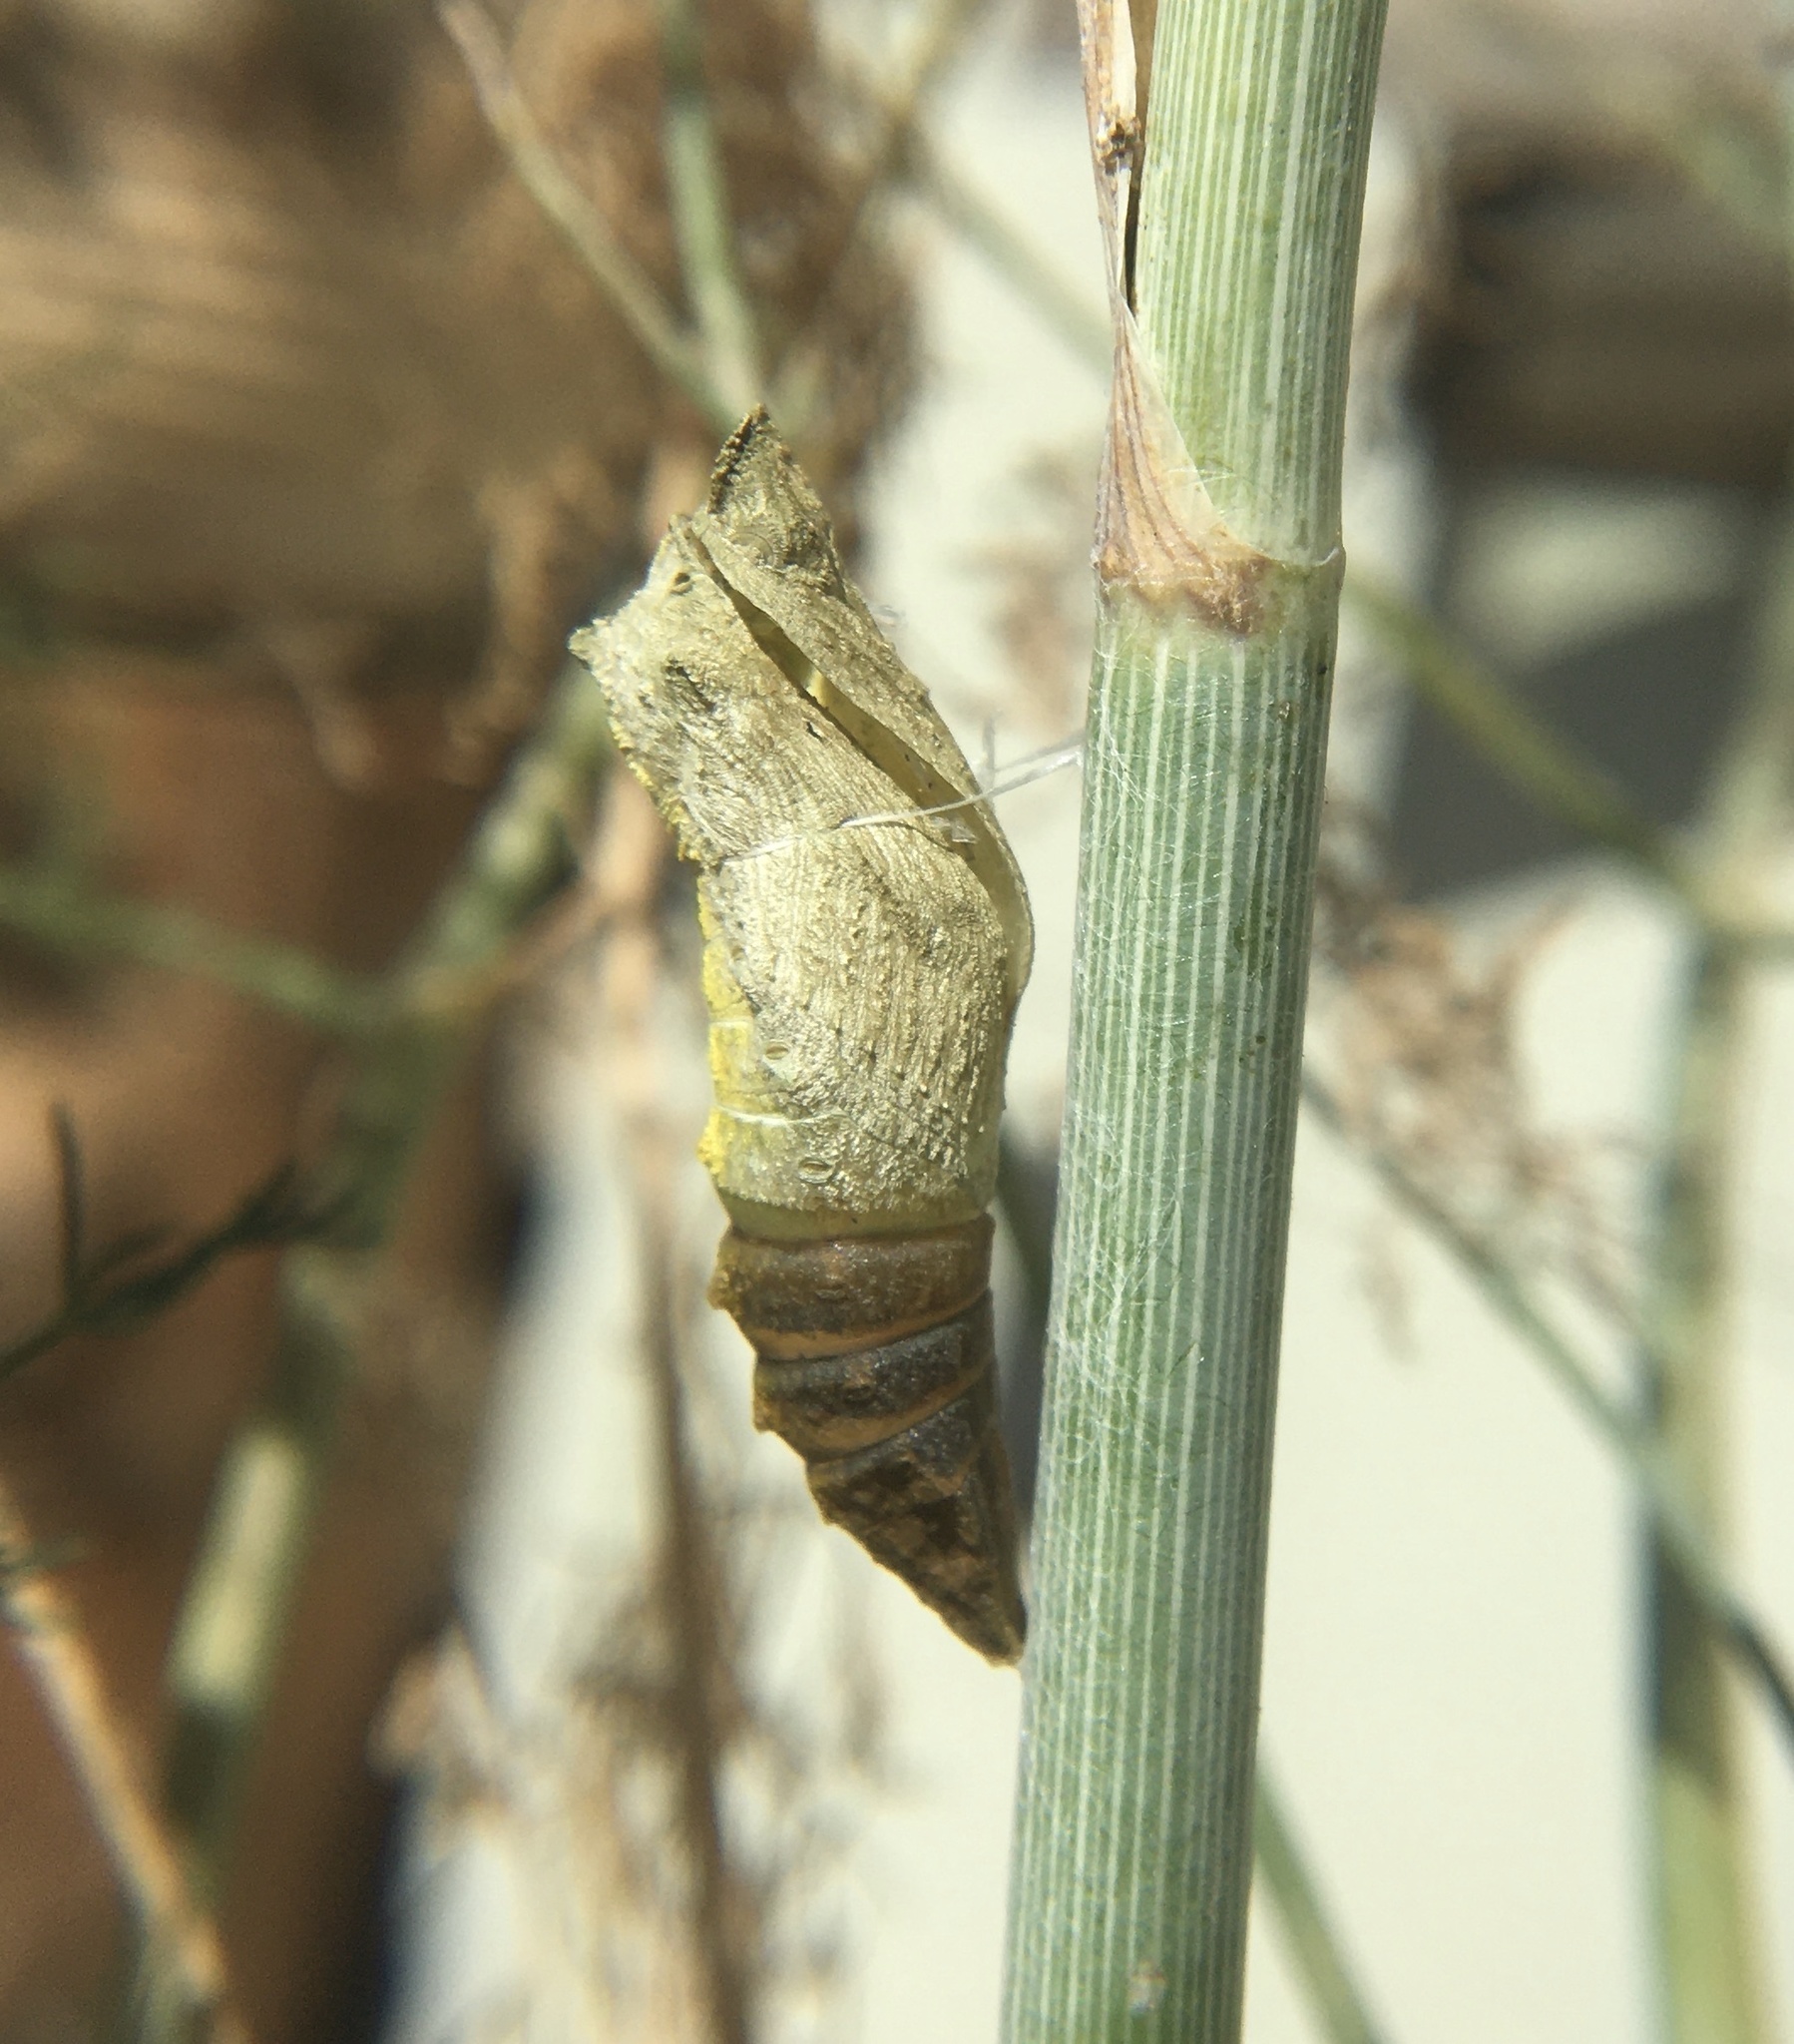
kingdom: Animalia
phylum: Arthropoda
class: Insecta
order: Lepidoptera
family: Papilionidae
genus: Papilio
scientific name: Papilio zelicaon
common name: Anise swallowtail
